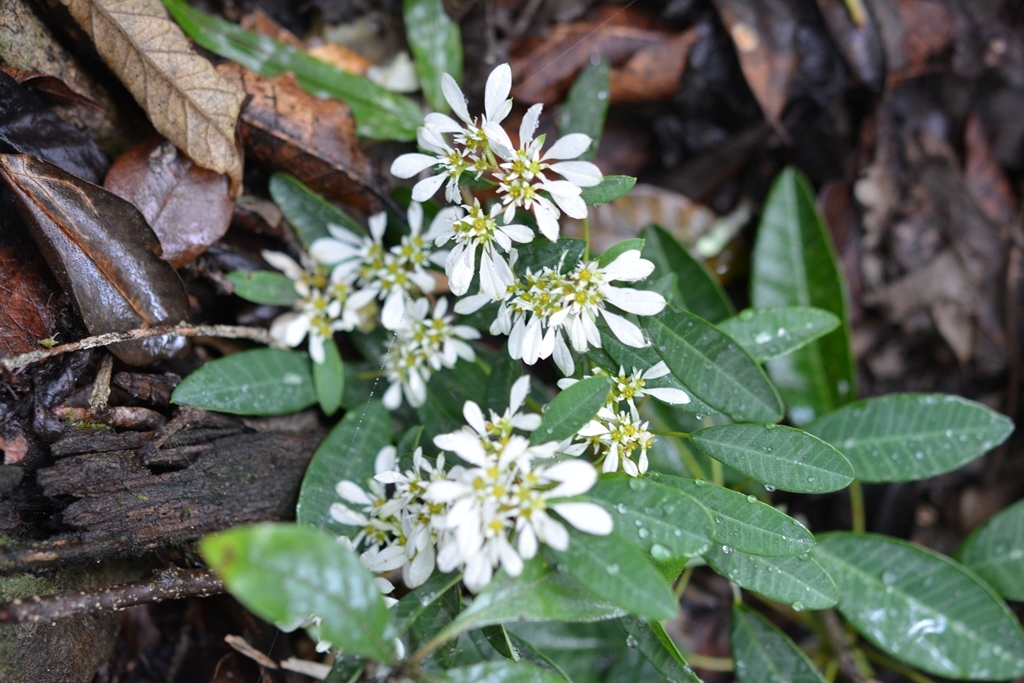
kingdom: Plantae
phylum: Tracheophyta
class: Magnoliopsida
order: Malpighiales
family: Euphorbiaceae
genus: Euphorbia
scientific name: Euphorbia leucocephala
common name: Pascuita
